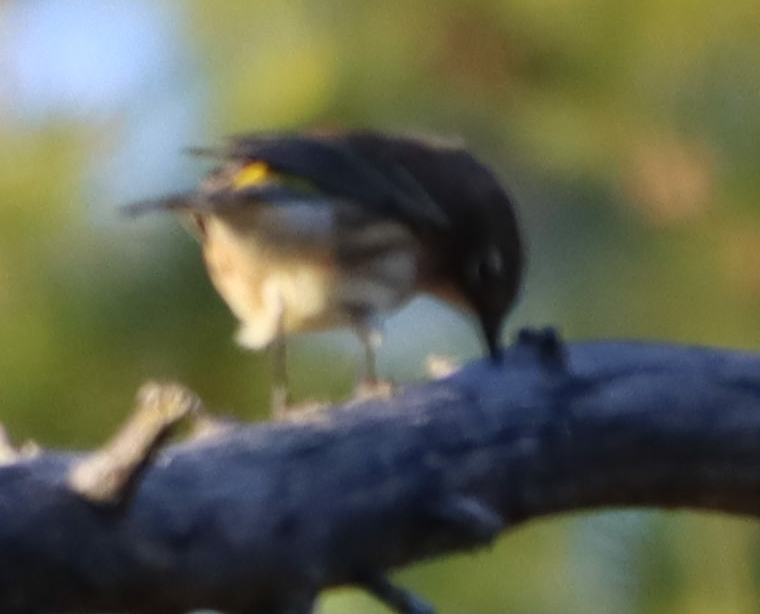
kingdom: Animalia
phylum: Chordata
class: Aves
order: Passeriformes
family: Parulidae
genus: Setophaga
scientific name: Setophaga coronata
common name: Myrtle warbler
